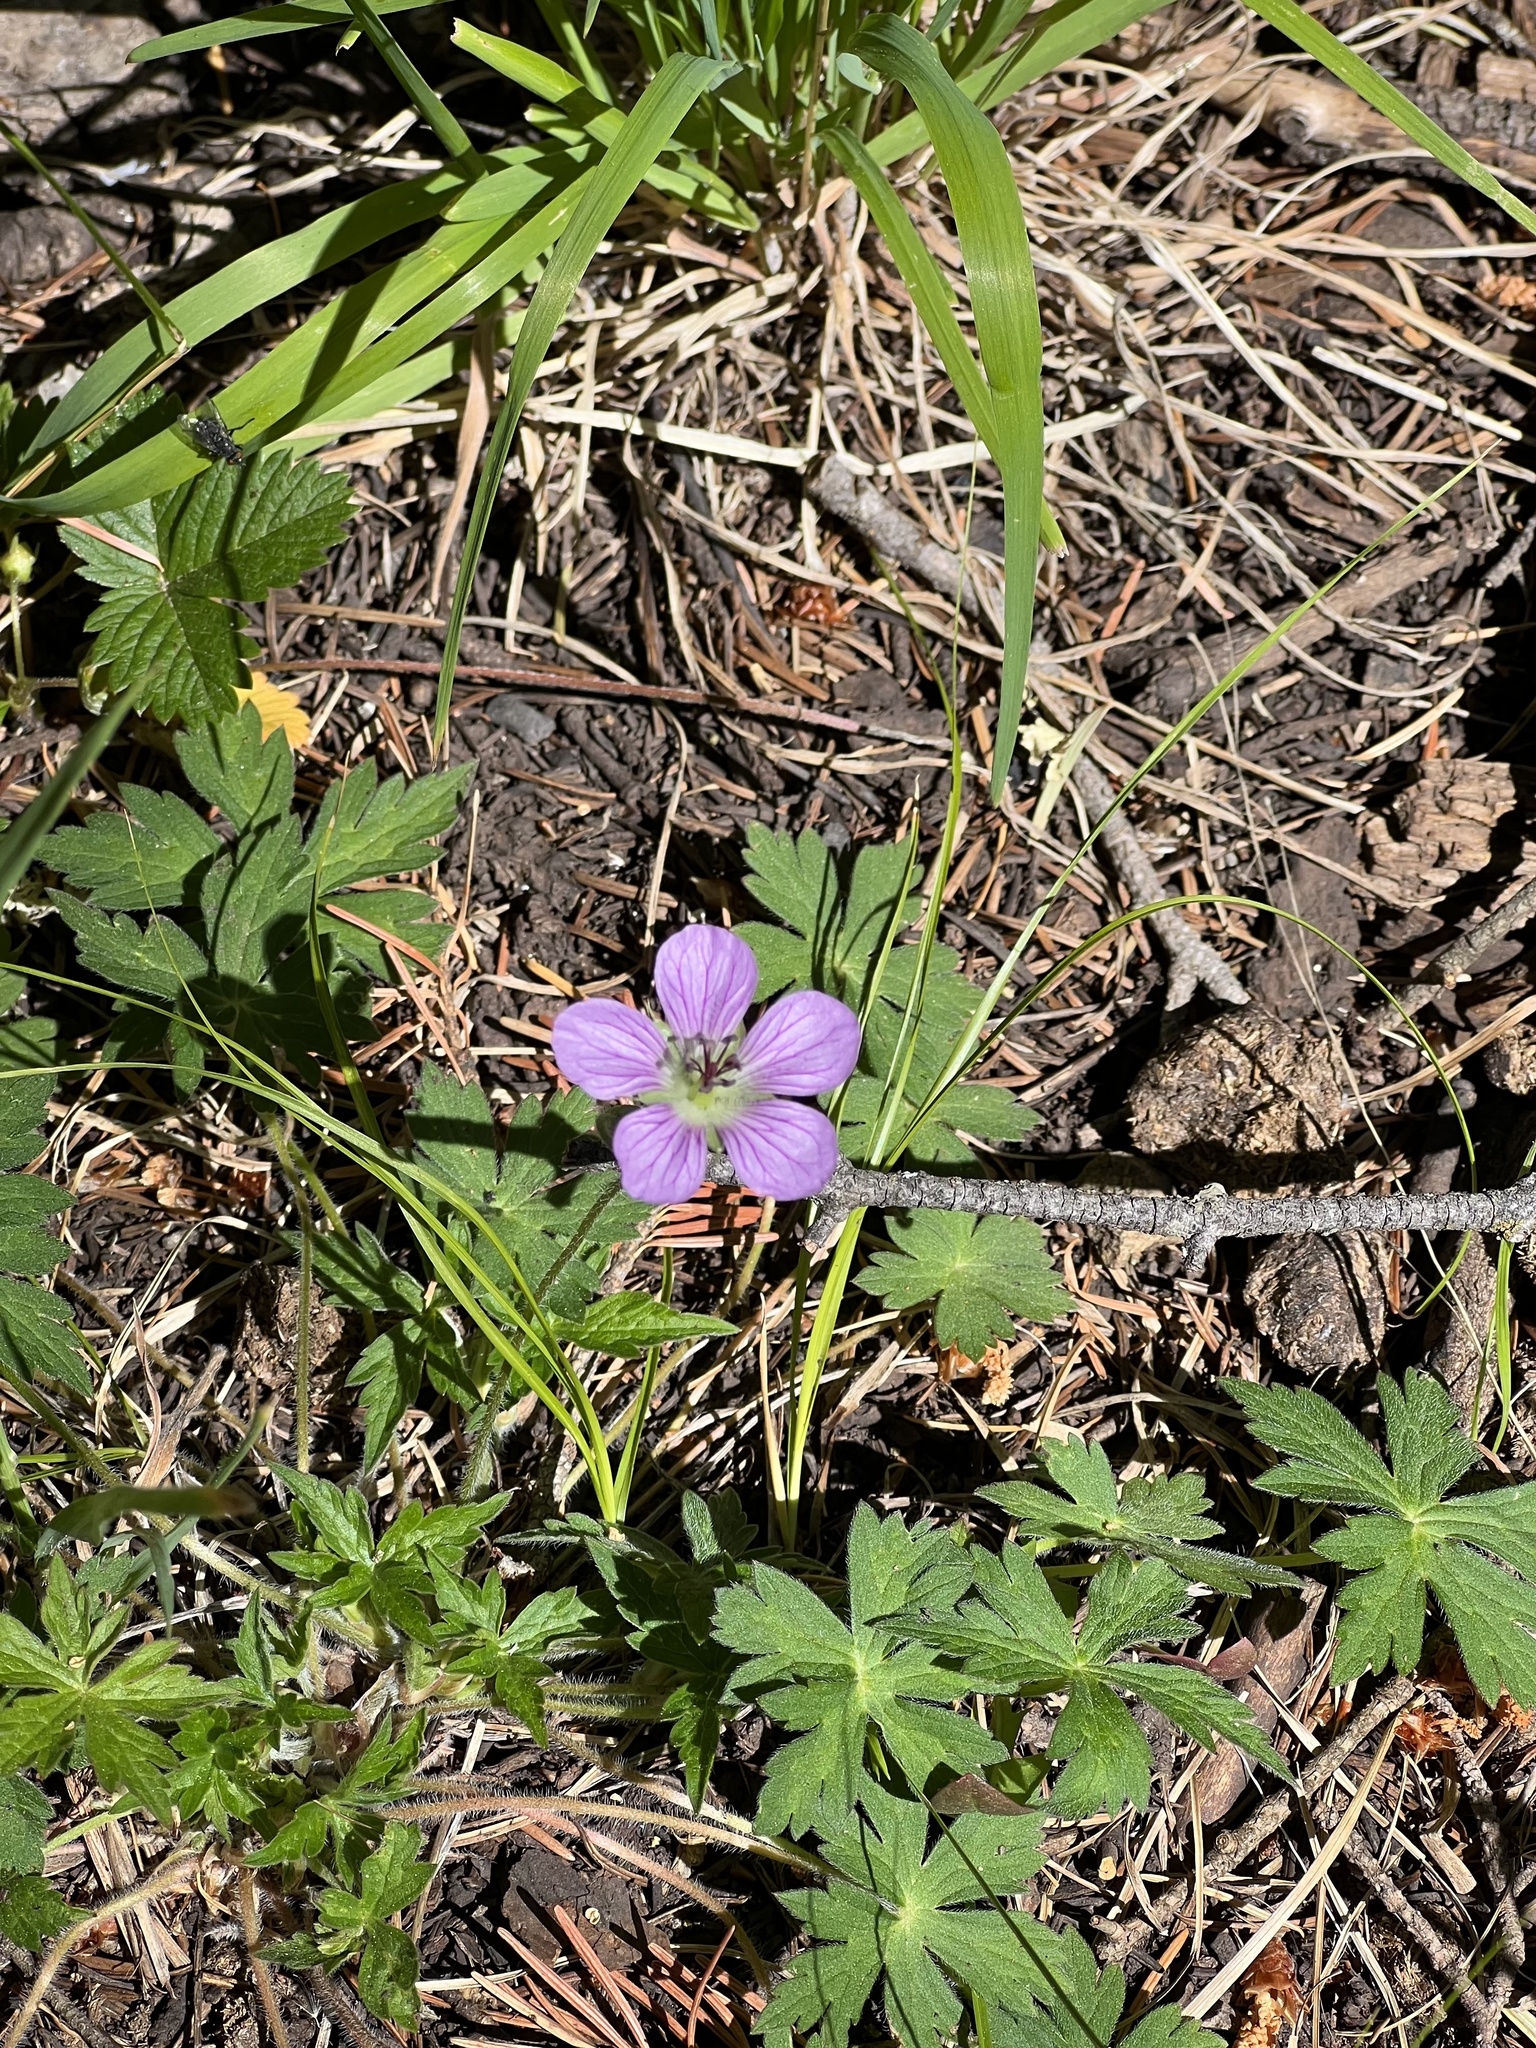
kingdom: Plantae
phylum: Tracheophyta
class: Magnoliopsida
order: Geraniales
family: Geraniaceae
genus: Geranium
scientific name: Geranium richardsonii
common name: Richardson's crane's-bill
